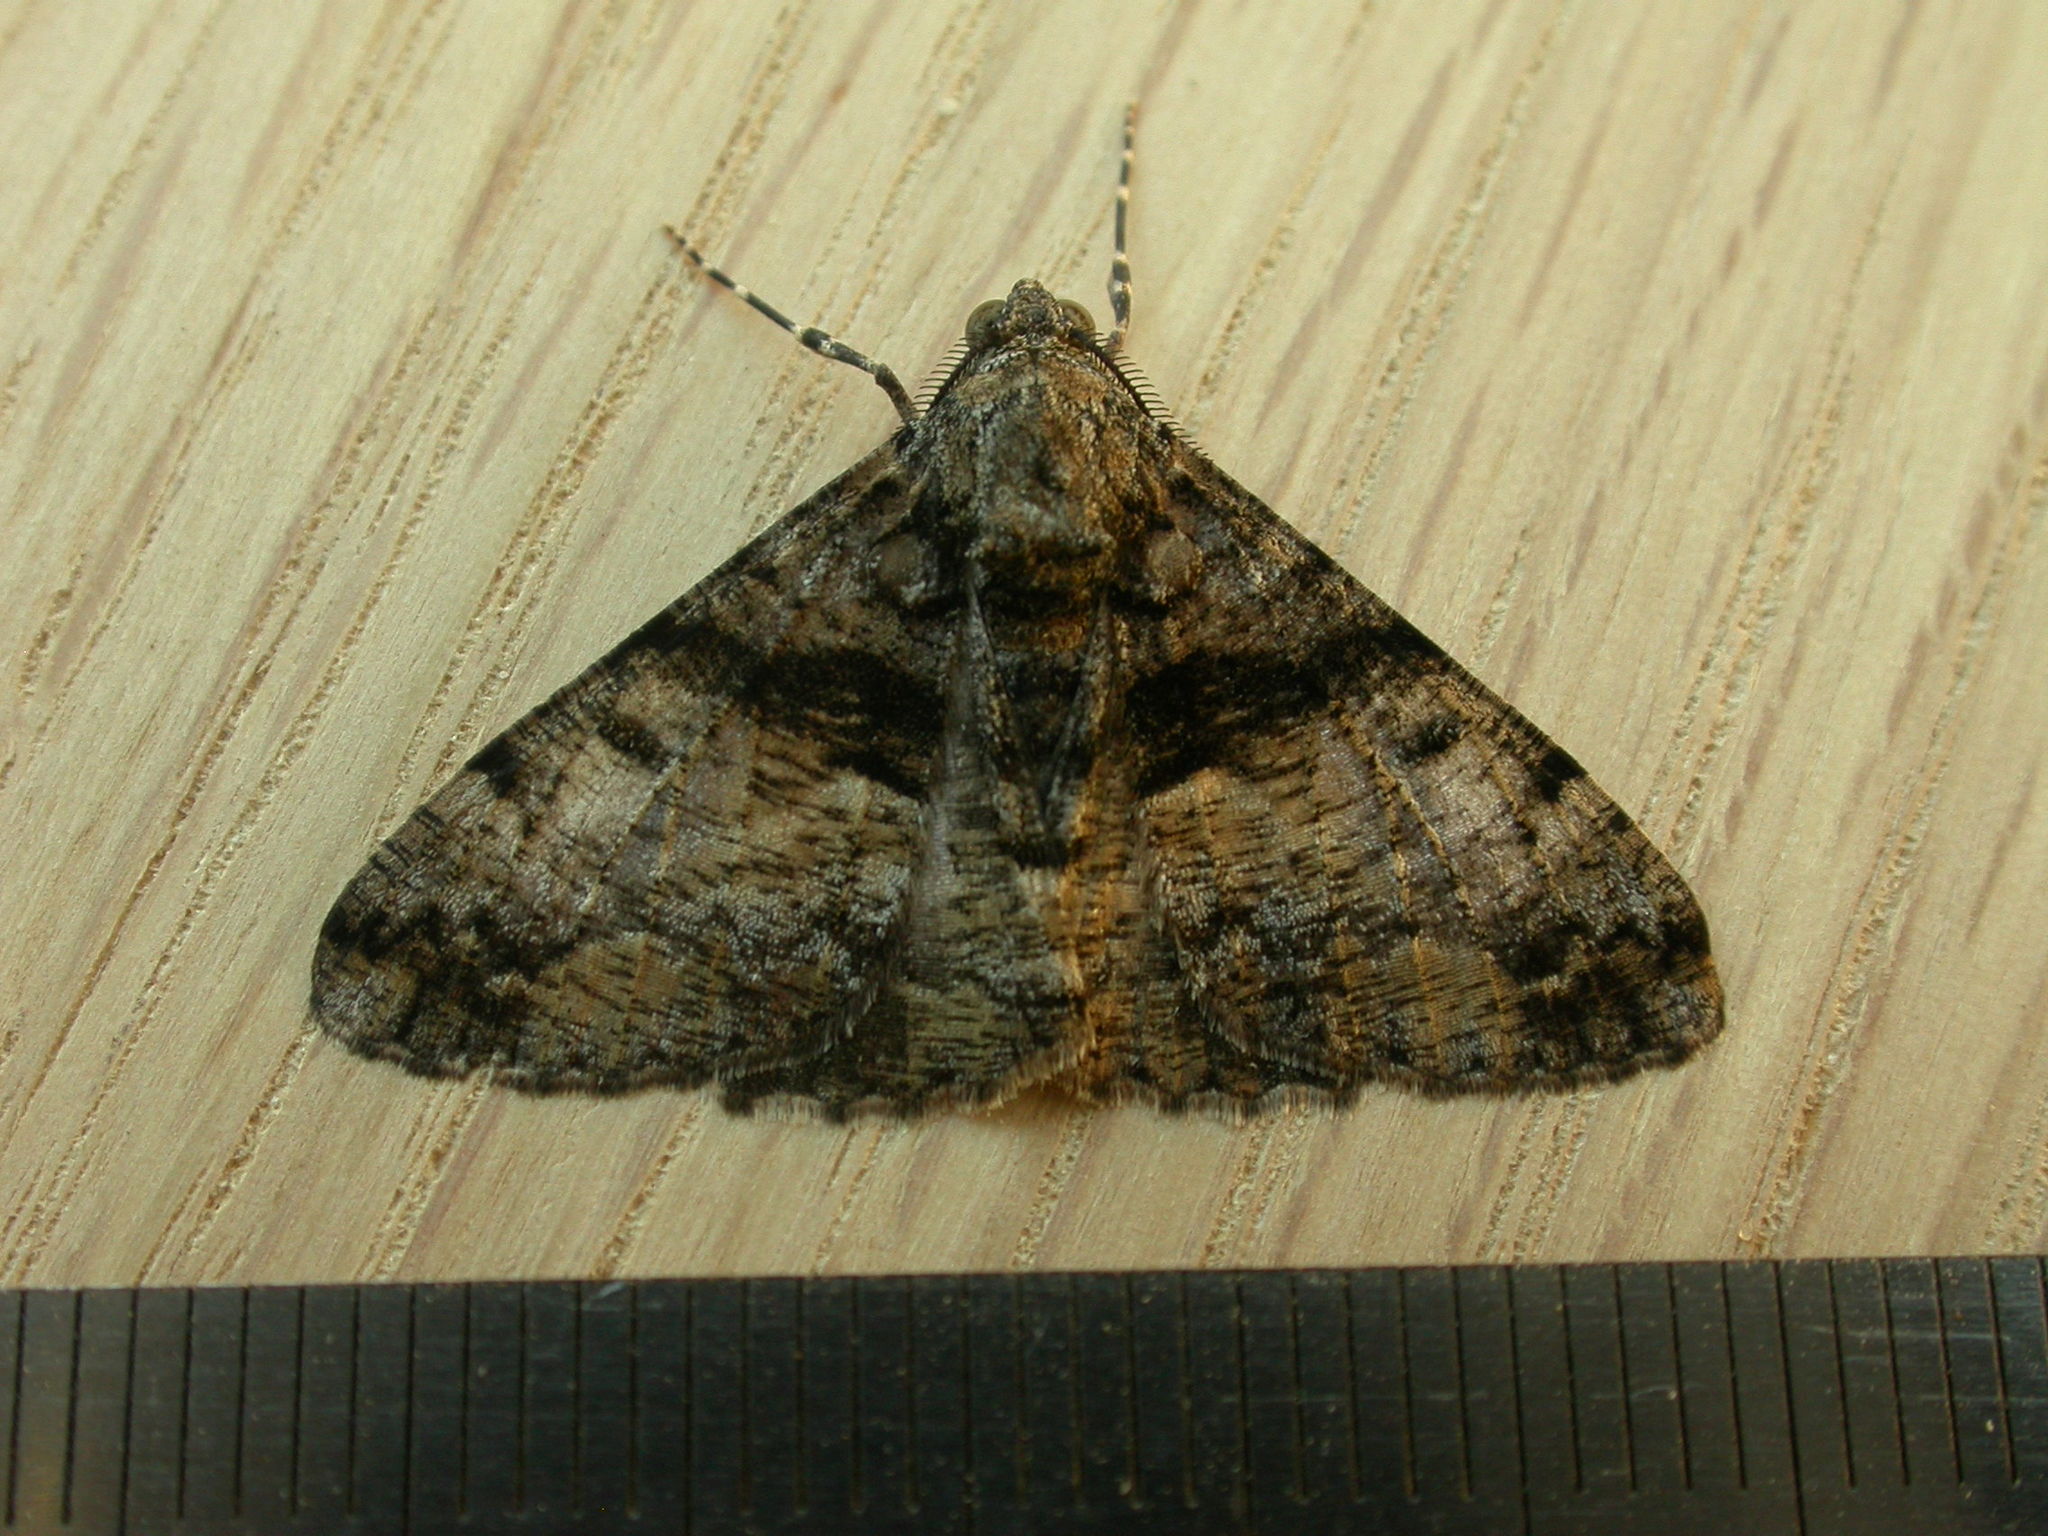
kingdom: Animalia
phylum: Arthropoda
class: Insecta
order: Lepidoptera
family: Geometridae
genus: Gastrinodes
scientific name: Gastrinodes argoplaca
